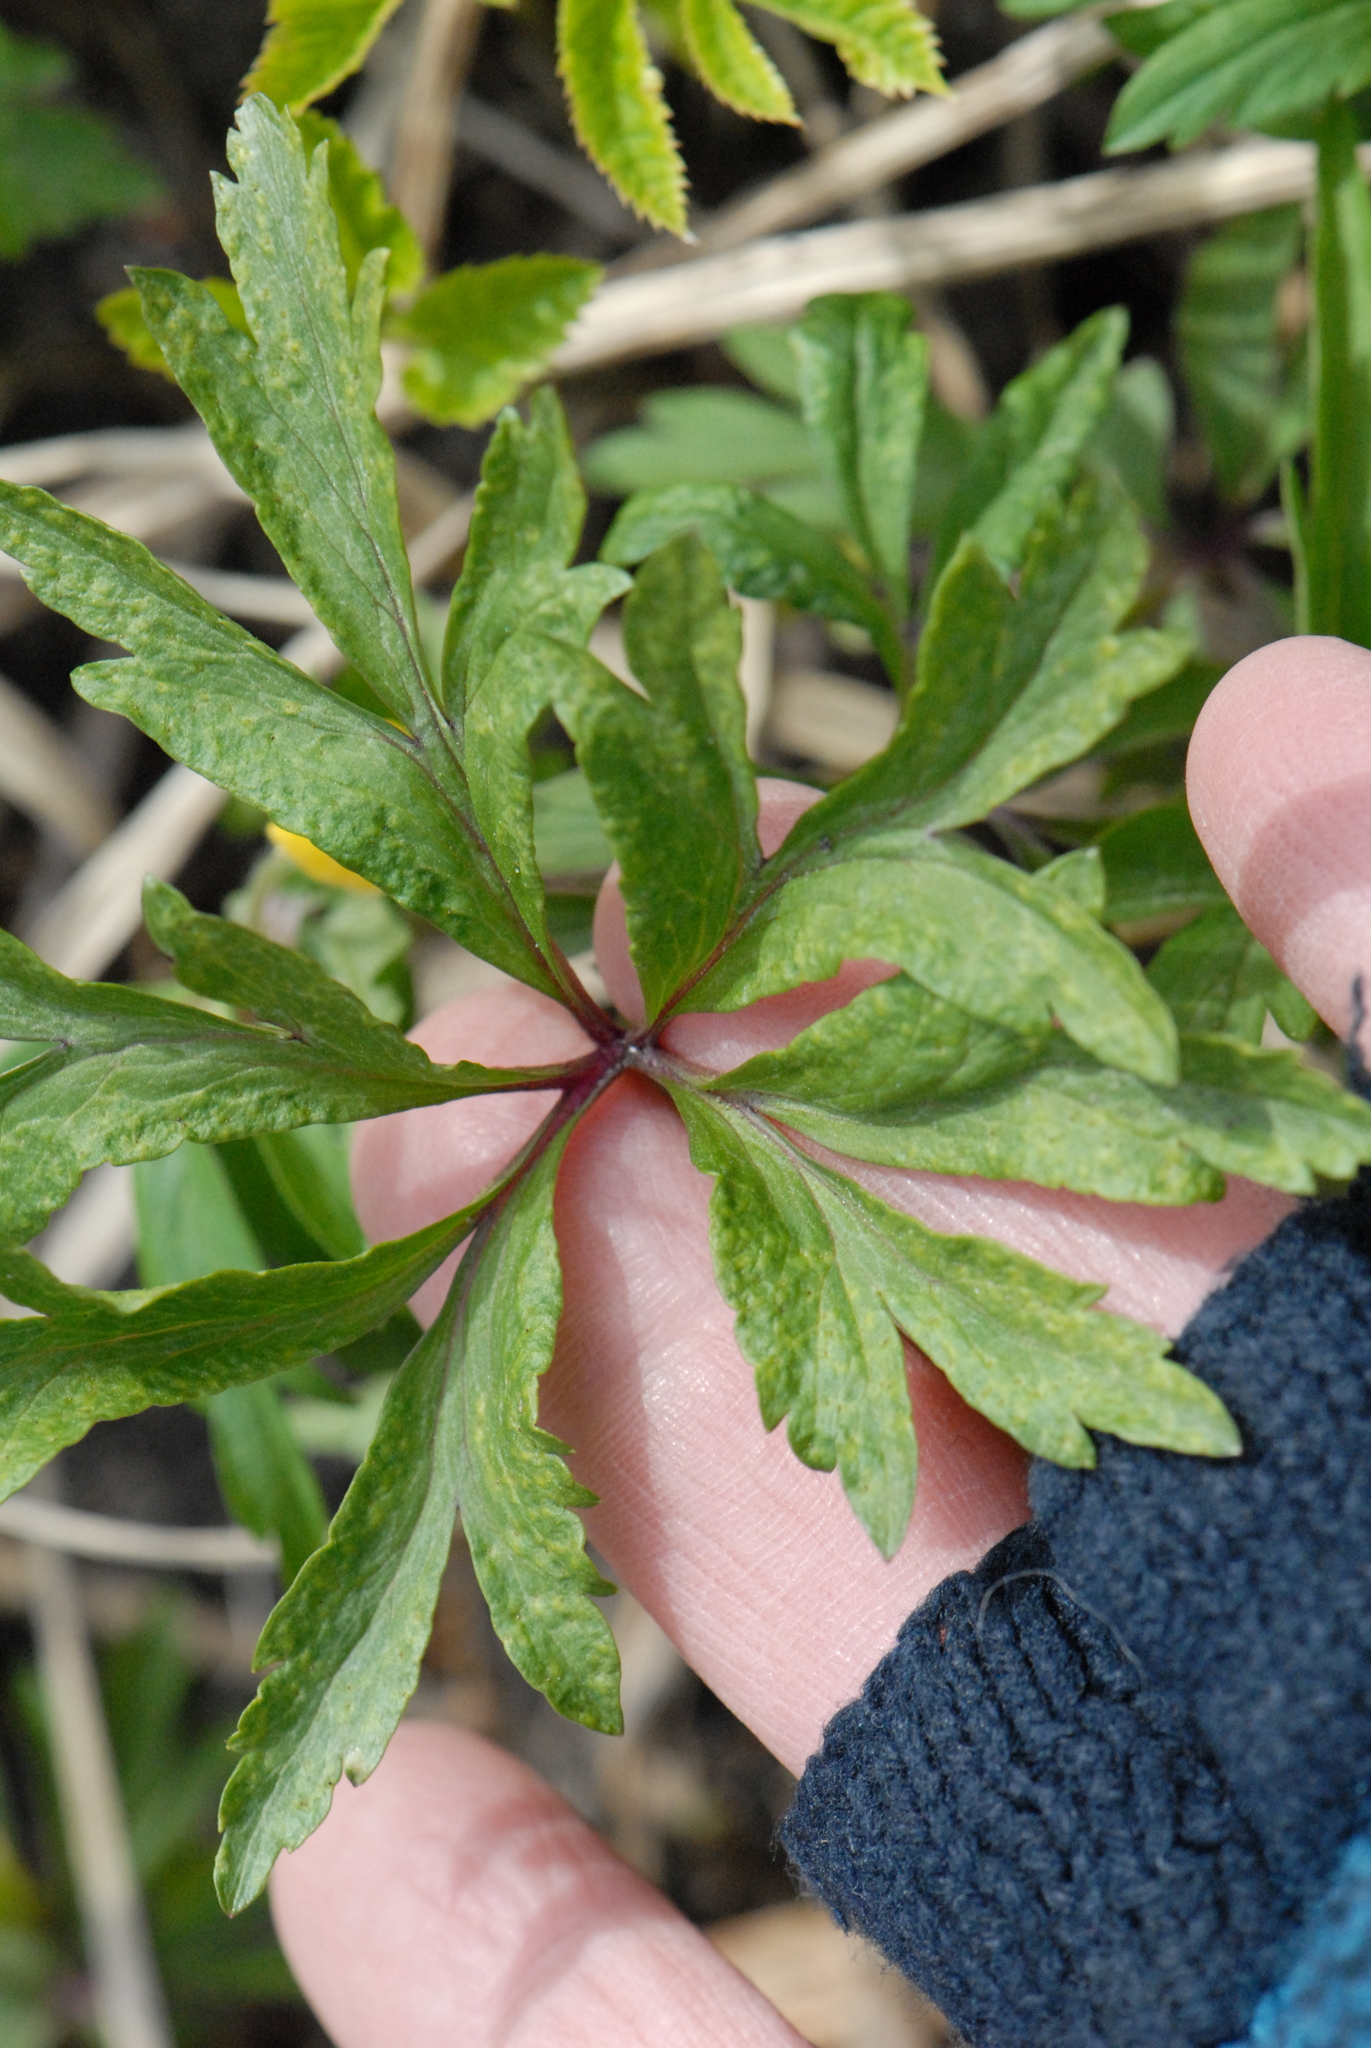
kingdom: Plantae
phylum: Tracheophyta
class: Magnoliopsida
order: Ranunculales
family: Ranunculaceae
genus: Anemone
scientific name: Anemone ranunculoides
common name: Yellow anemone
